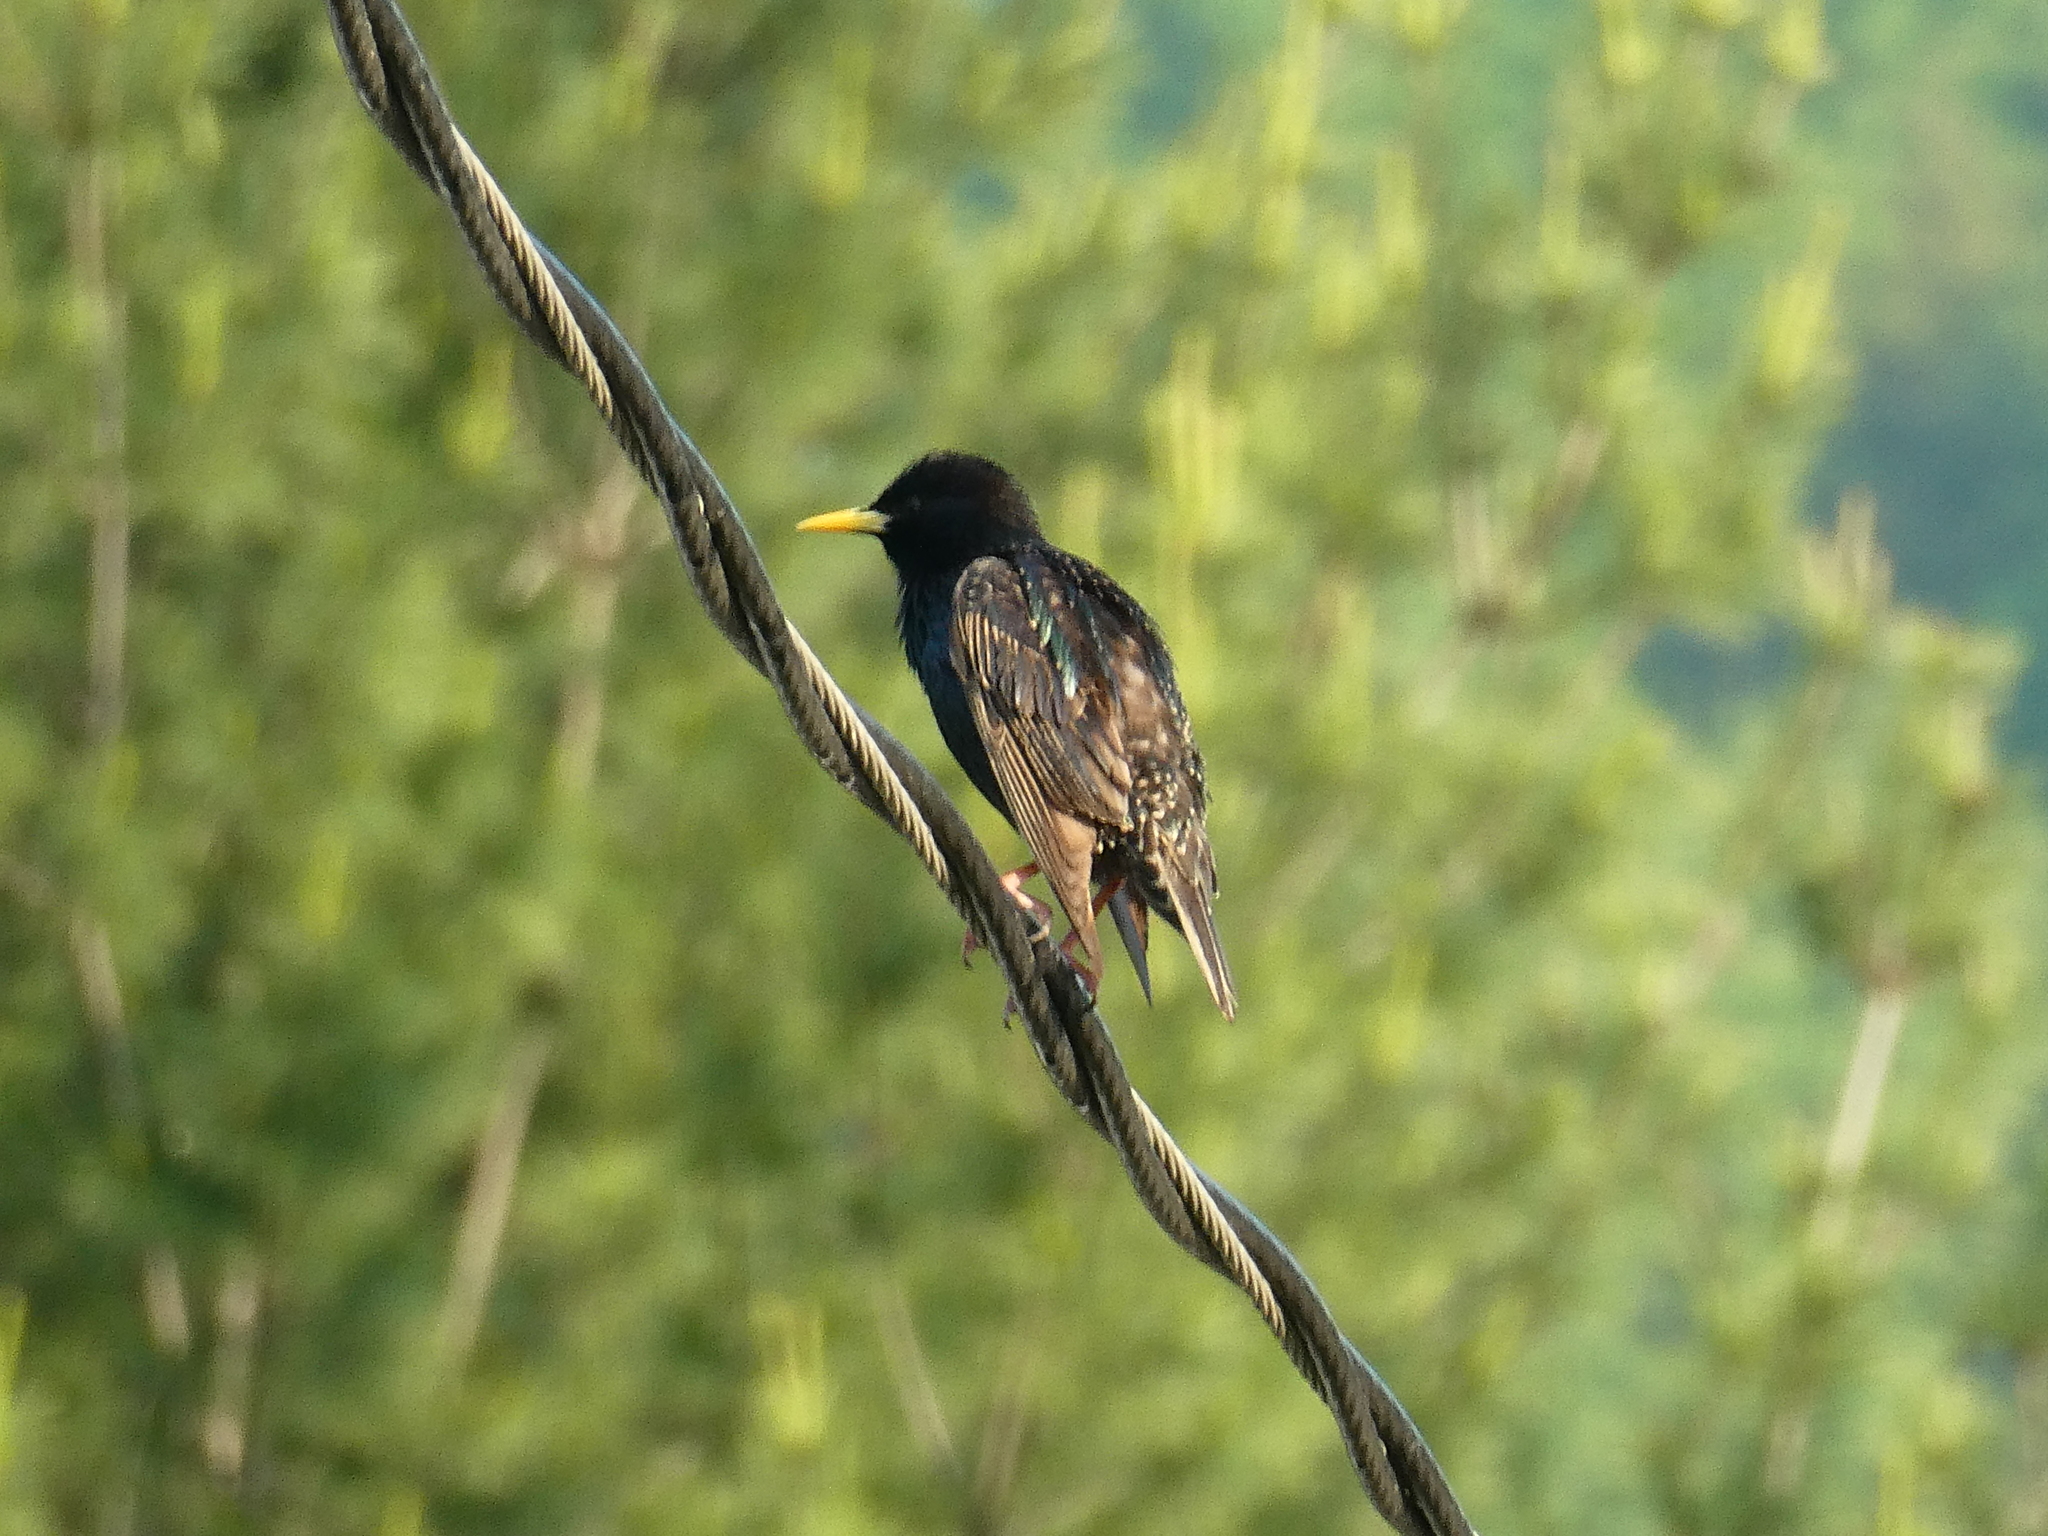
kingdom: Animalia
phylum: Chordata
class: Aves
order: Passeriformes
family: Sturnidae
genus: Sturnus
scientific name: Sturnus vulgaris
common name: Common starling
